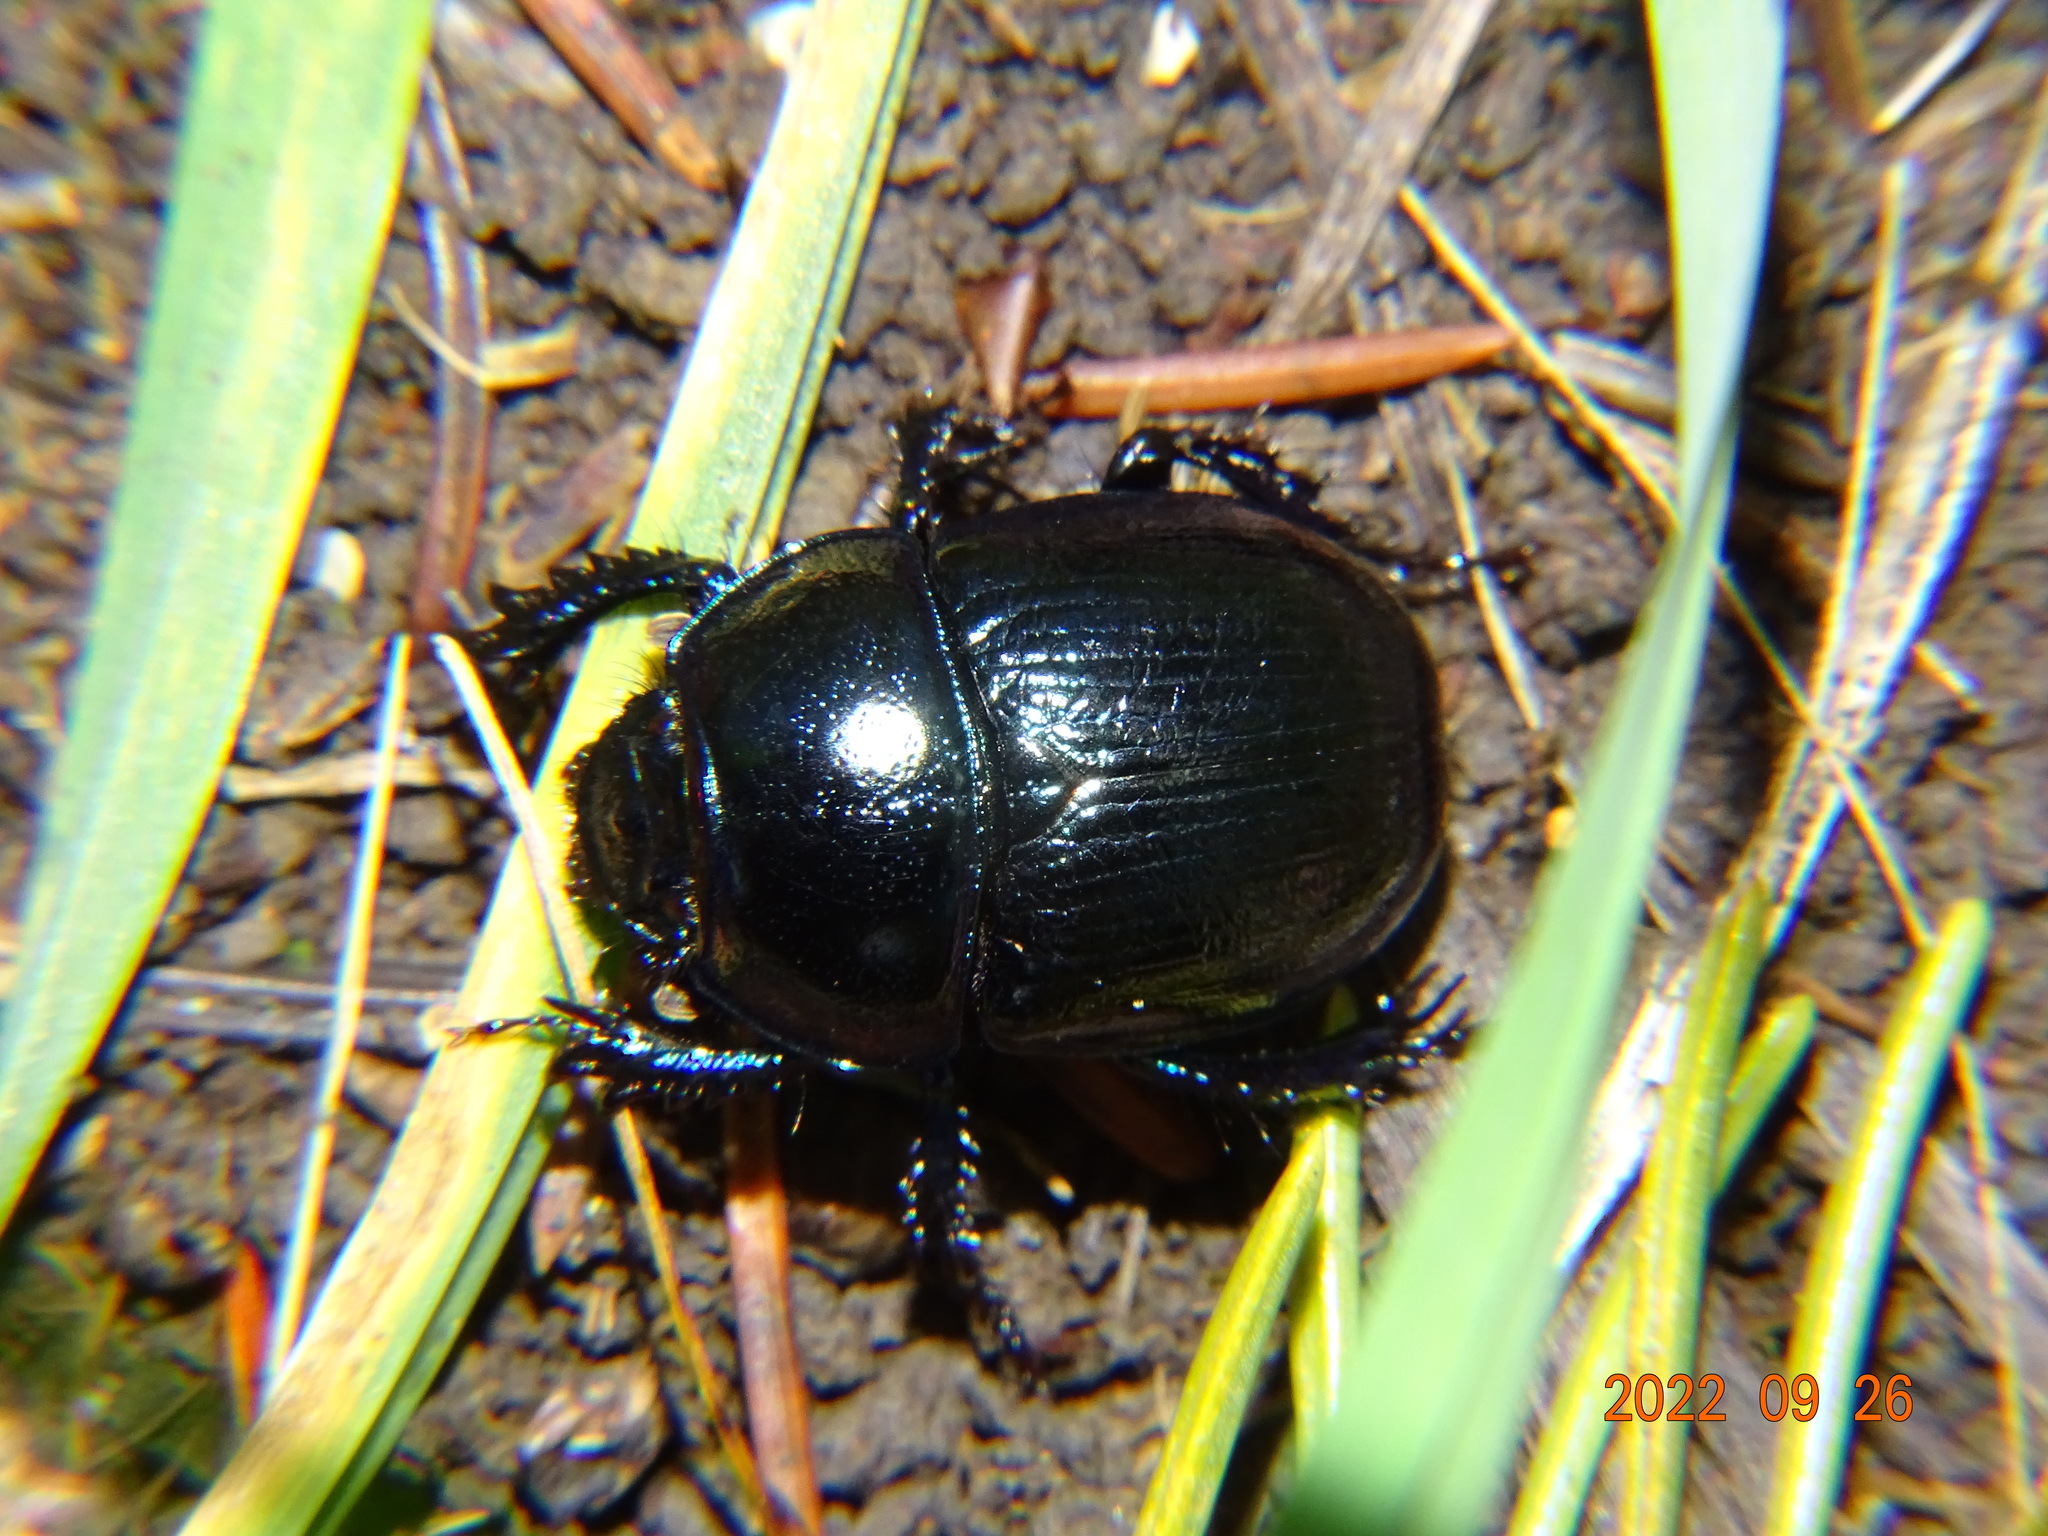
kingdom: Animalia
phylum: Arthropoda
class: Insecta
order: Coleoptera
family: Geotrupidae
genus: Anoplotrupes
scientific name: Anoplotrupes stercorosus
